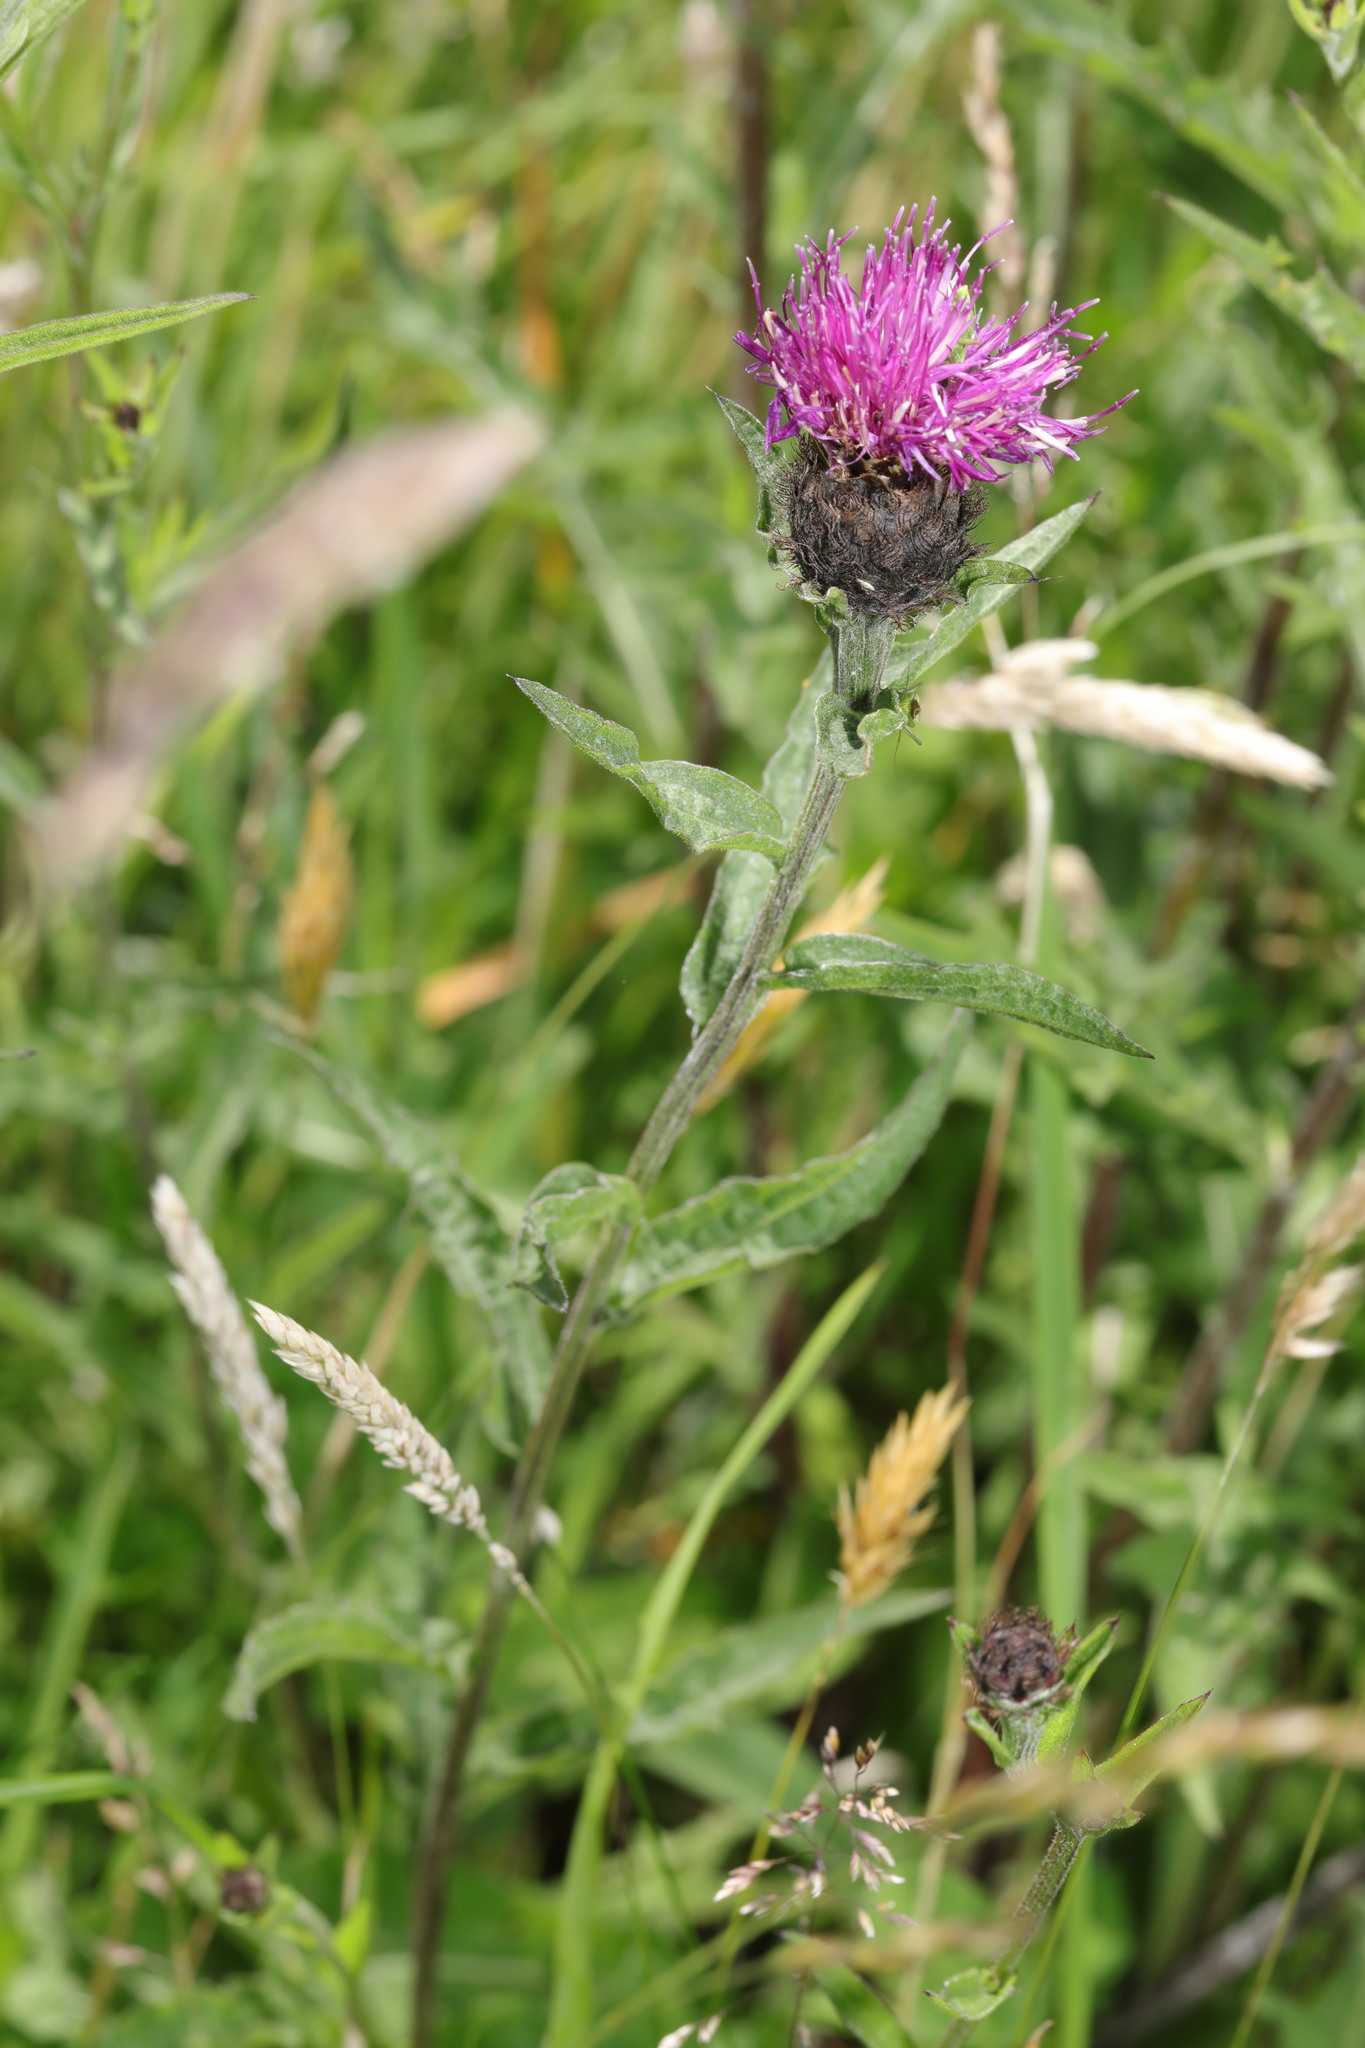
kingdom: Plantae
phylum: Tracheophyta
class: Magnoliopsida
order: Asterales
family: Asteraceae
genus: Centaurea
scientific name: Centaurea nigra
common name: Lesser knapweed
